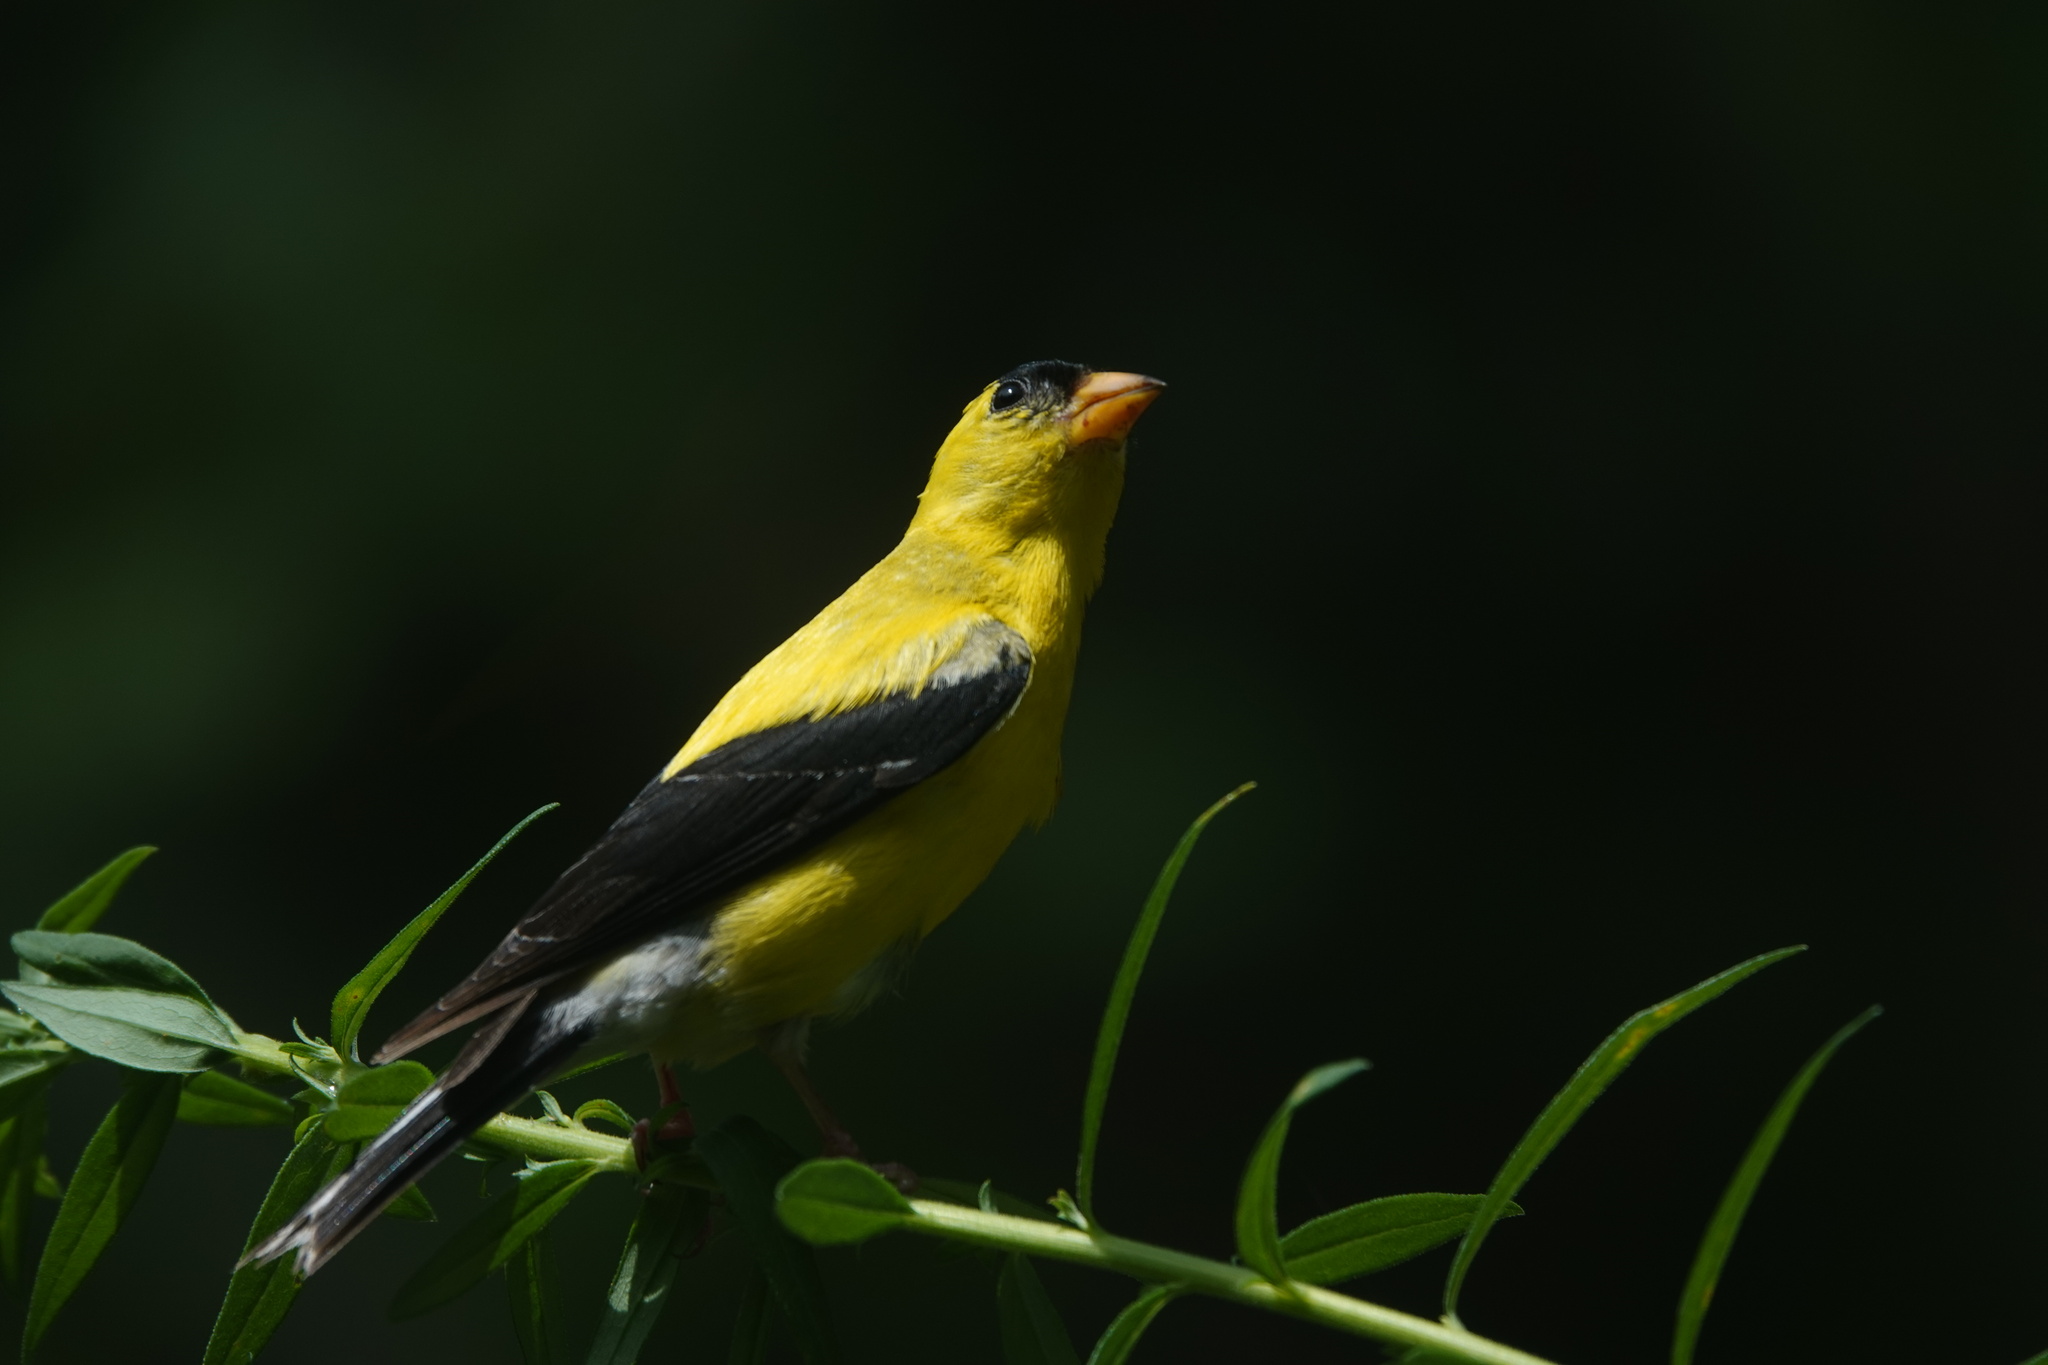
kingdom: Animalia
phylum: Chordata
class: Aves
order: Passeriformes
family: Fringillidae
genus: Spinus
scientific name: Spinus tristis
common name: American goldfinch
